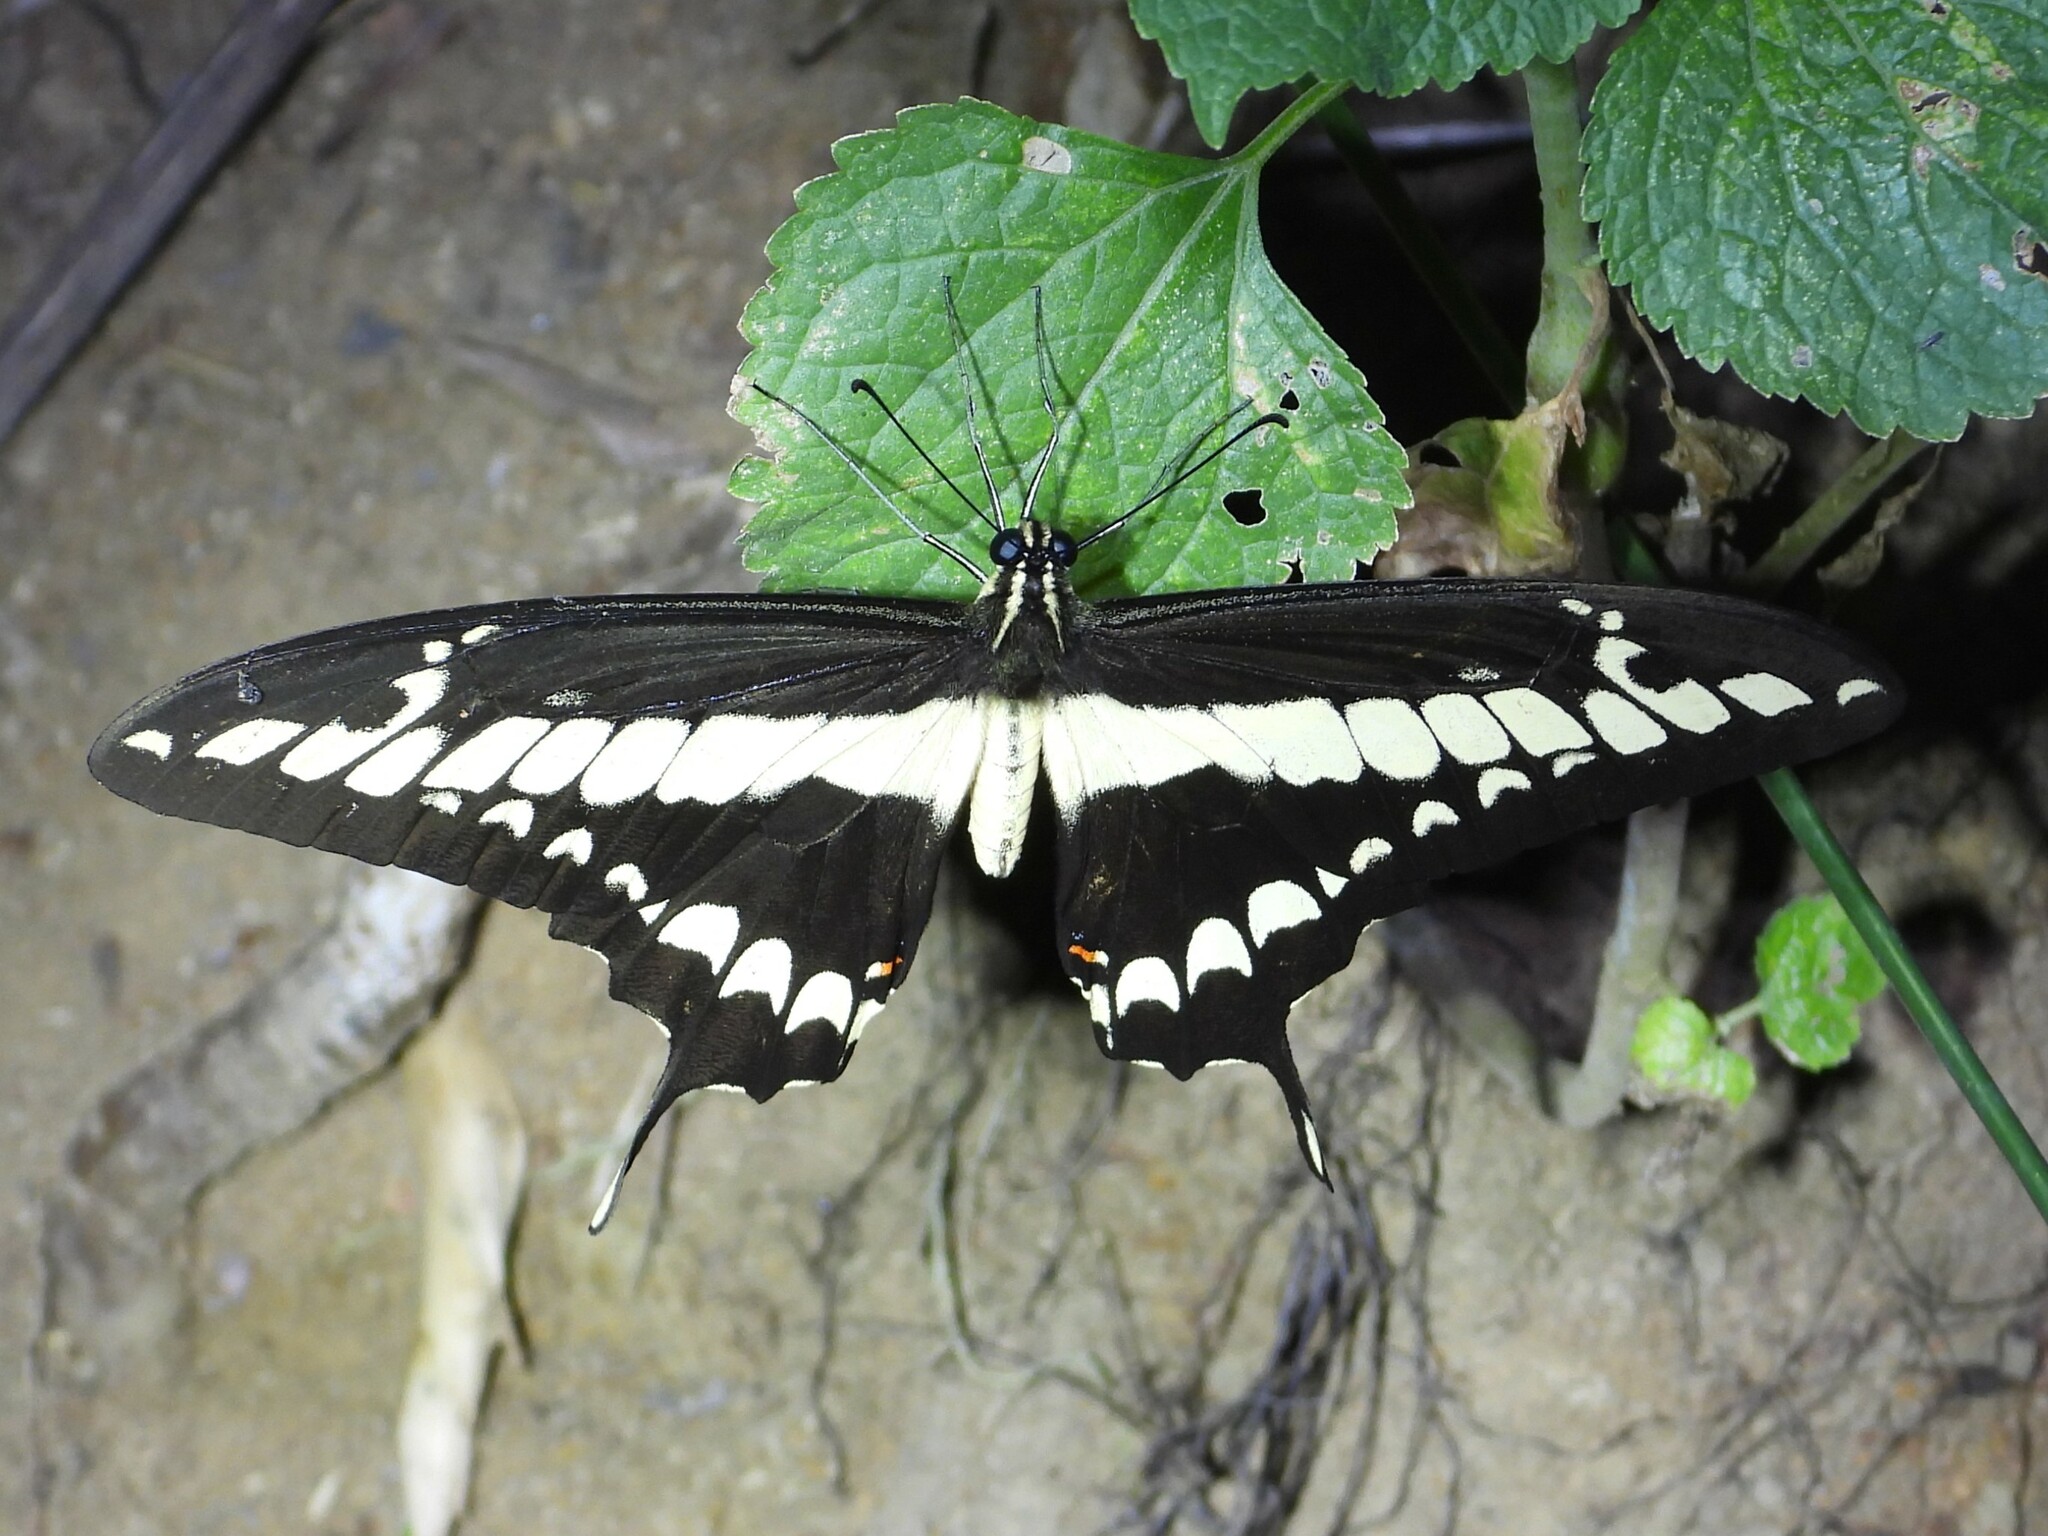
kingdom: Animalia
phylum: Arthropoda
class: Insecta
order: Lepidoptera
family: Papilionidae
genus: Papilio
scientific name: Papilio thoas
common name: King swallowtail
